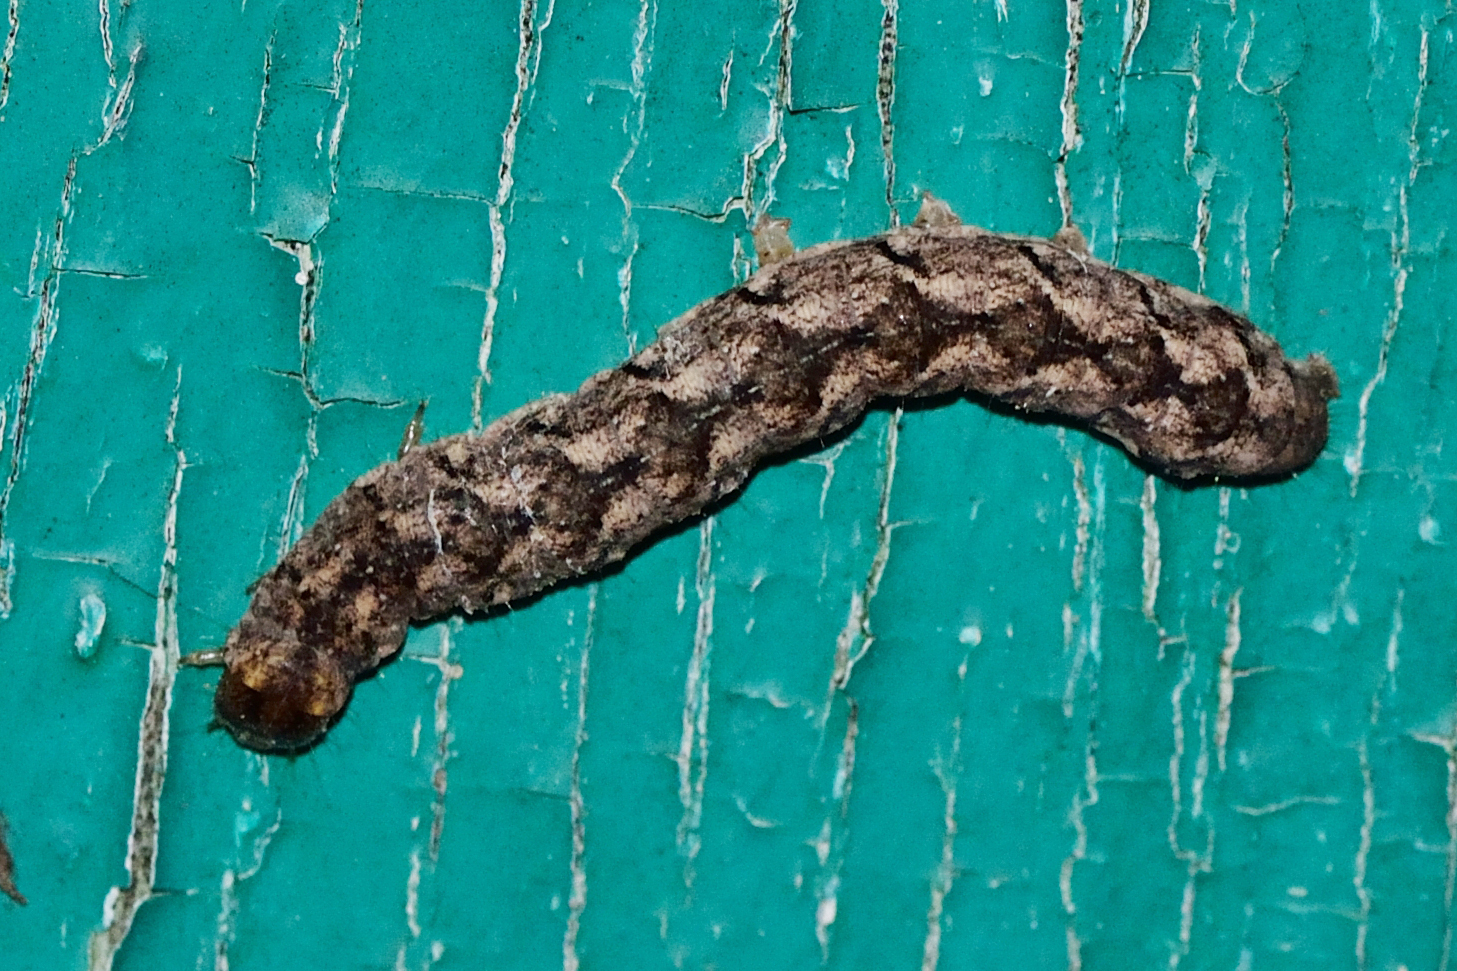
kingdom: Animalia
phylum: Arthropoda
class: Insecta
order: Lepidoptera
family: Noctuidae
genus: Polia
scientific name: Polia nebulosa
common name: Grey arches
